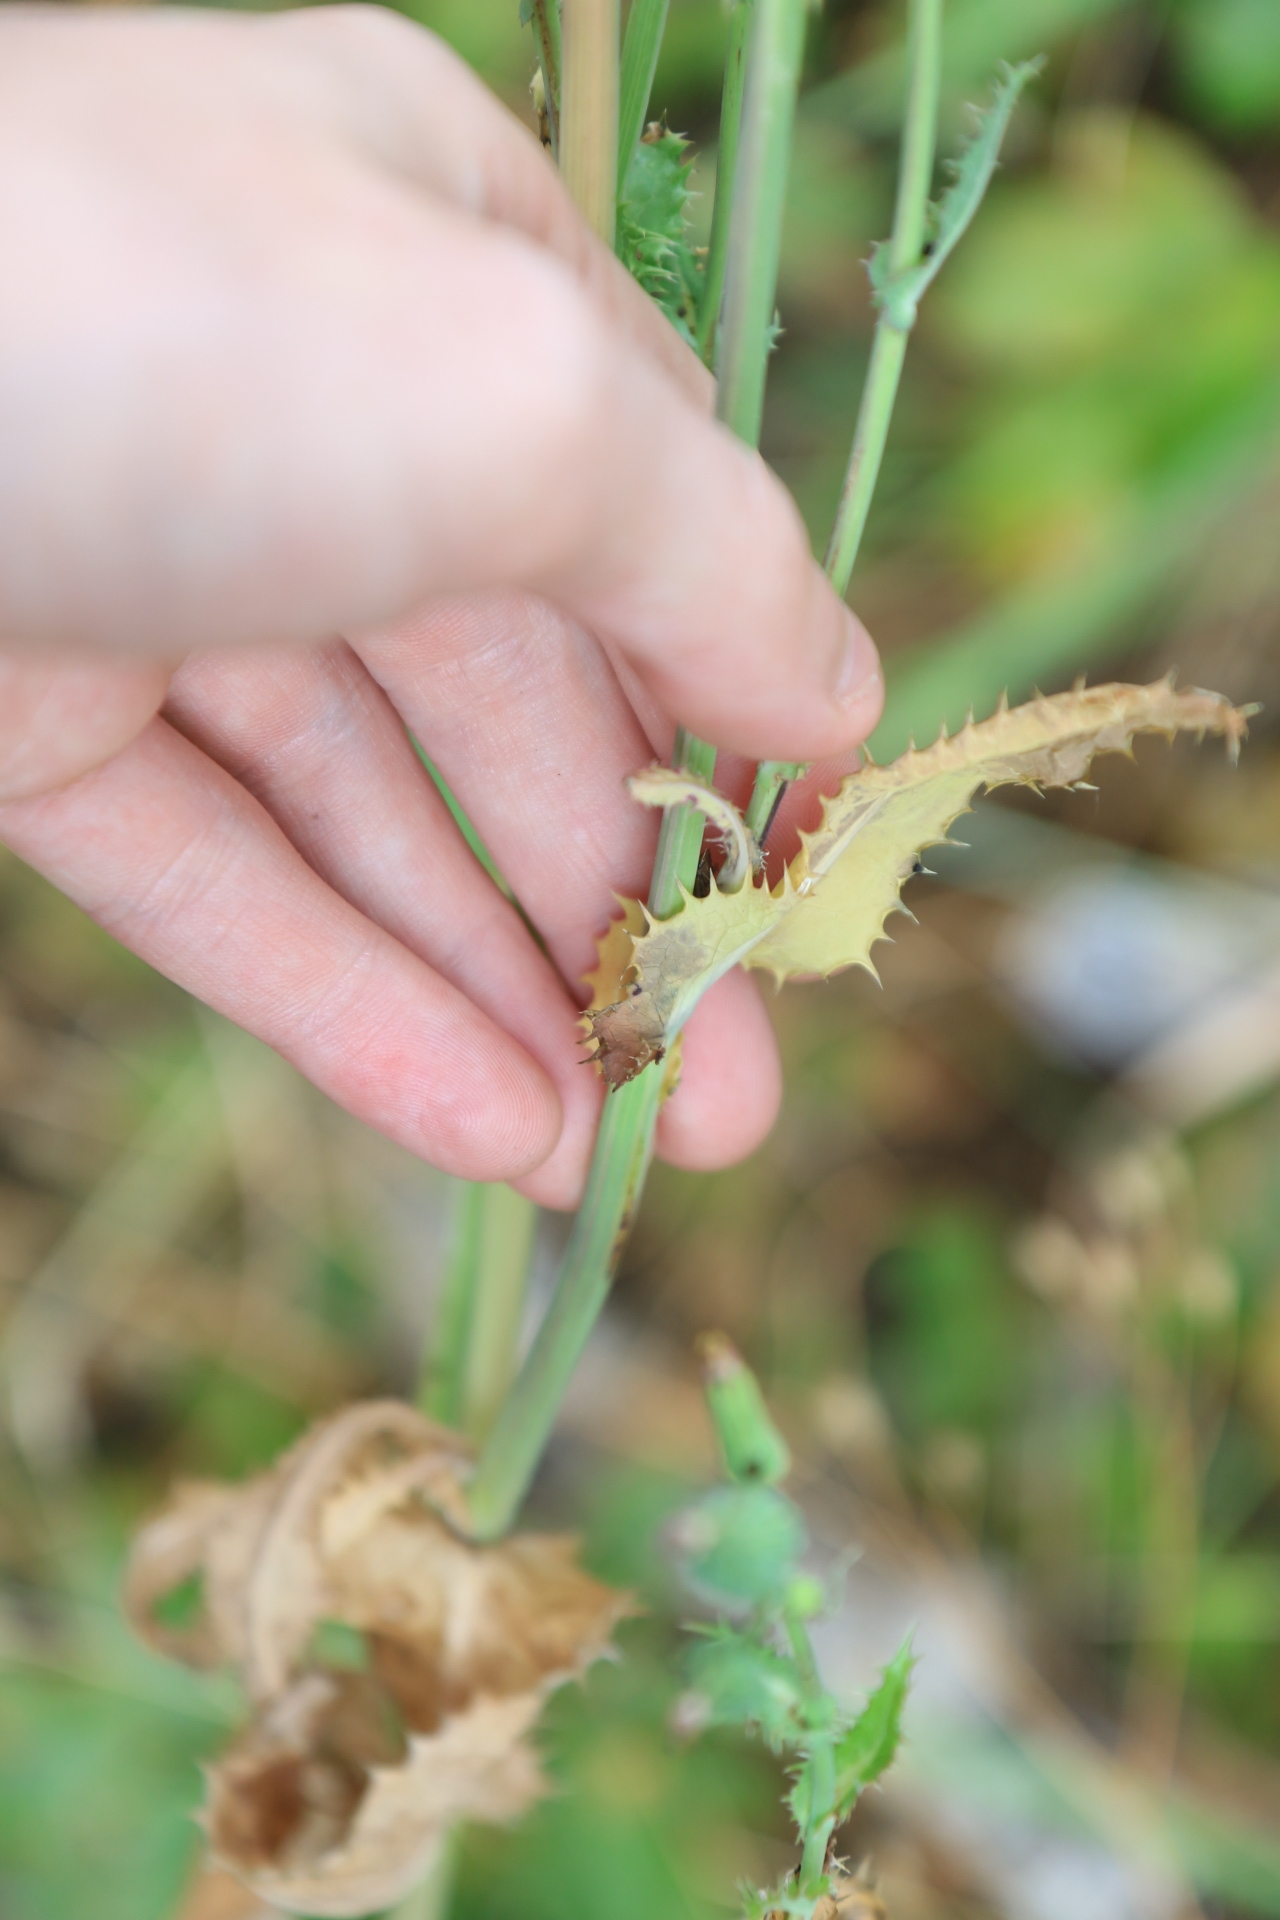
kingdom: Plantae
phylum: Tracheophyta
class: Magnoliopsida
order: Asterales
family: Asteraceae
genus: Sonchus
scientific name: Sonchus asper
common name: Prickly sow-thistle
